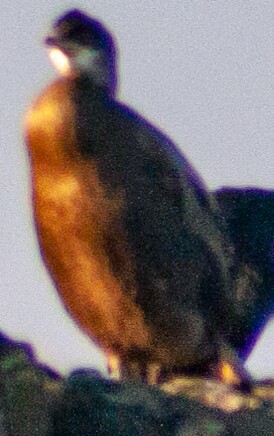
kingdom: Animalia
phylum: Chordata
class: Aves
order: Suliformes
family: Phalacrocoracidae
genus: Phalacrocorax
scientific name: Phalacrocorax aristotelis
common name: European shag
